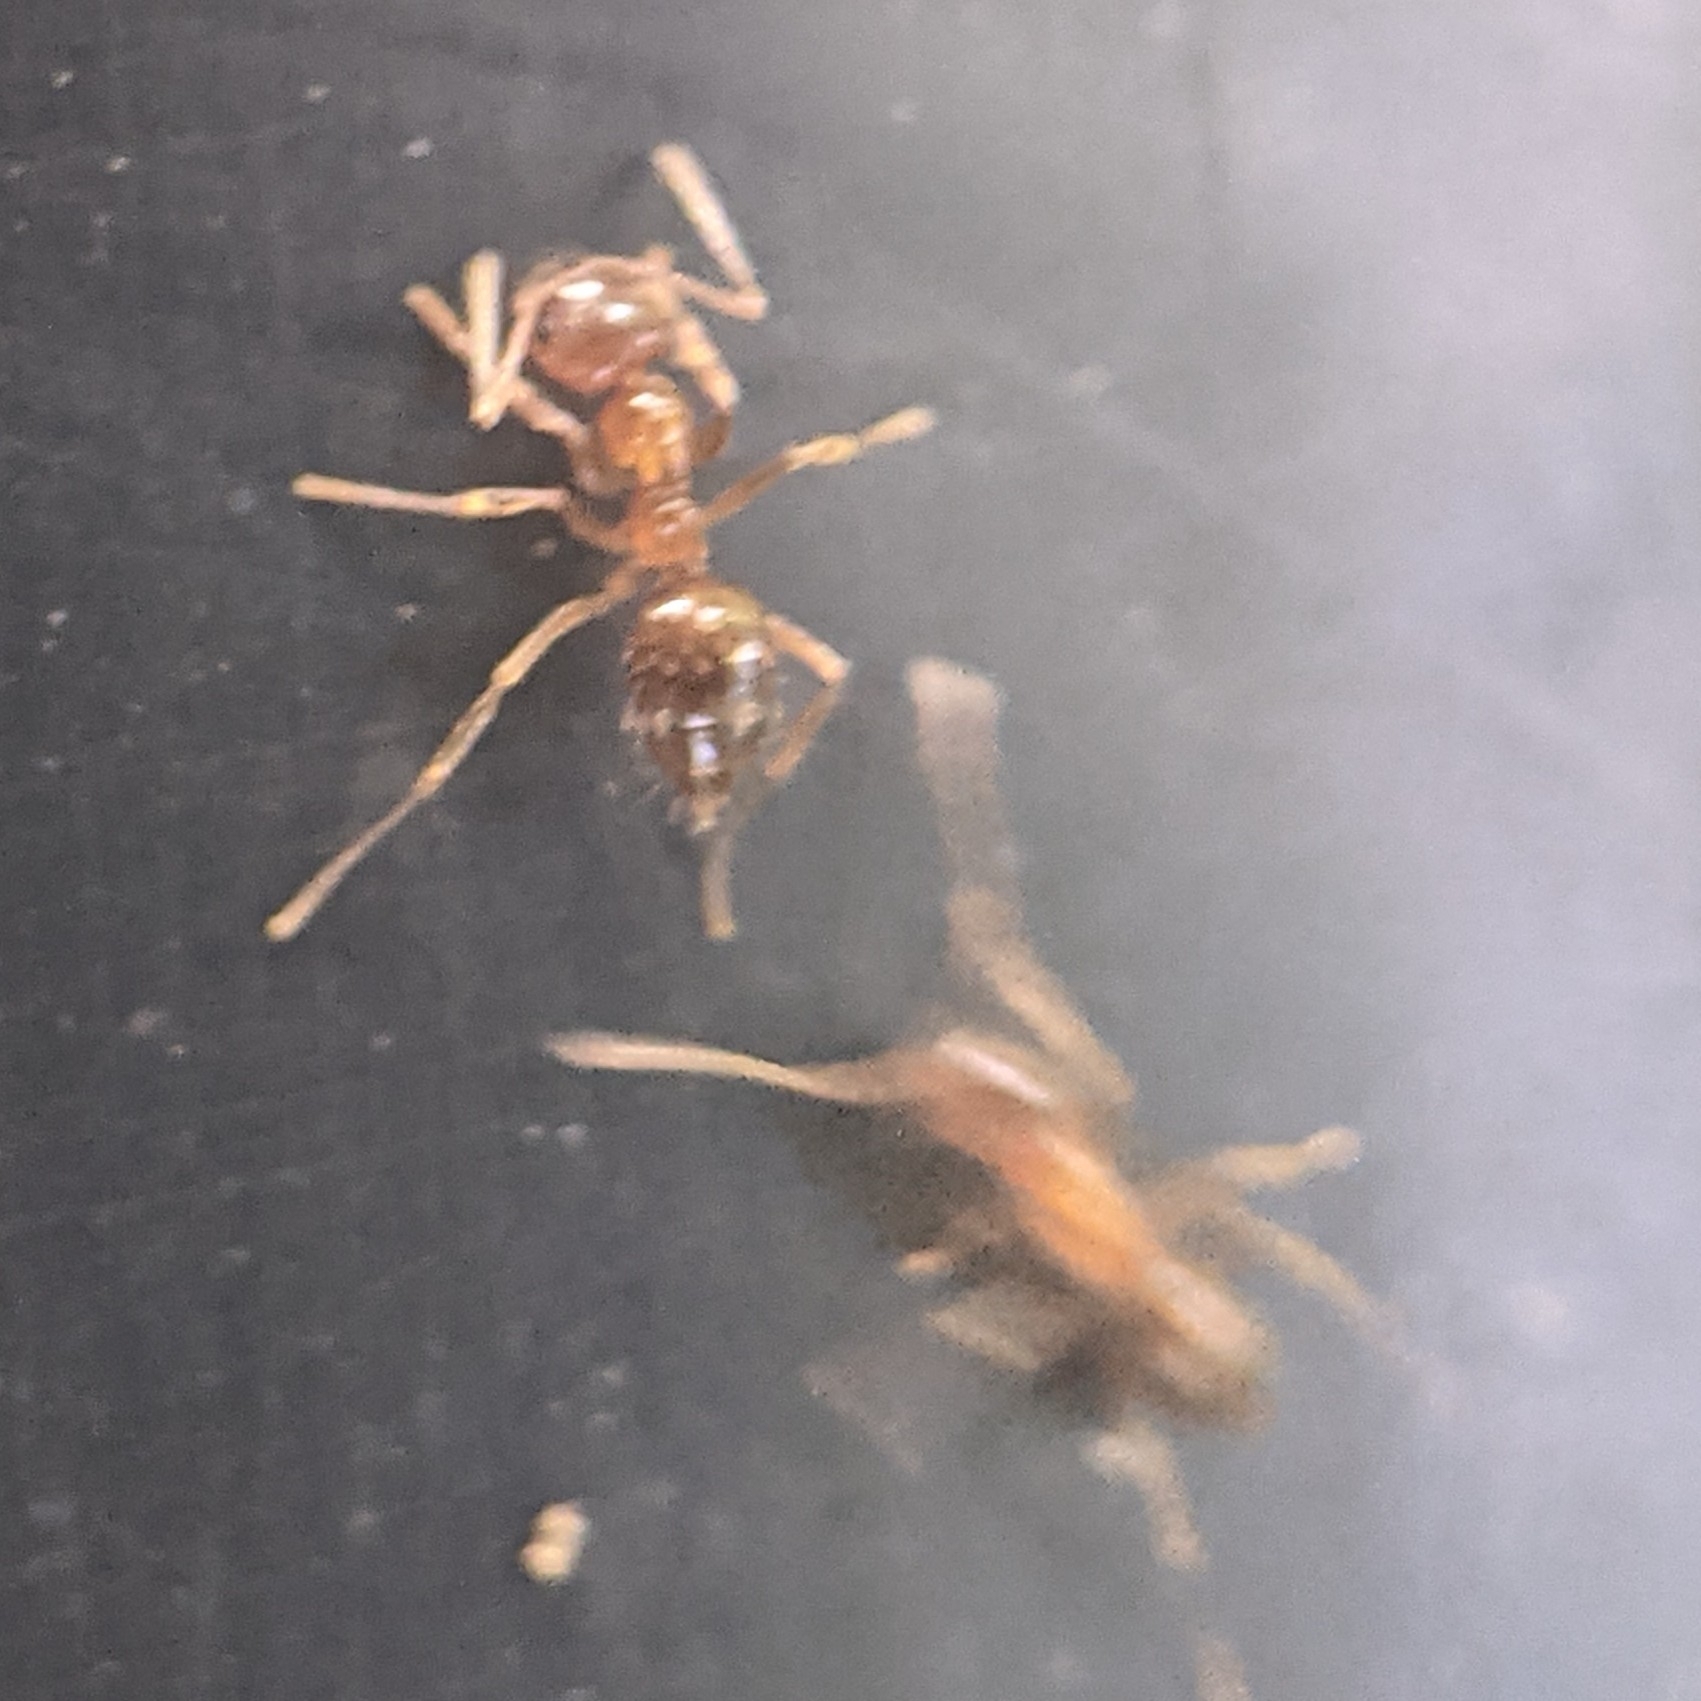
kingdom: Animalia
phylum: Arthropoda
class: Insecta
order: Hymenoptera
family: Formicidae
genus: Paratrechina
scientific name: Paratrechina flavipes
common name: Eastern asian formicine ant
